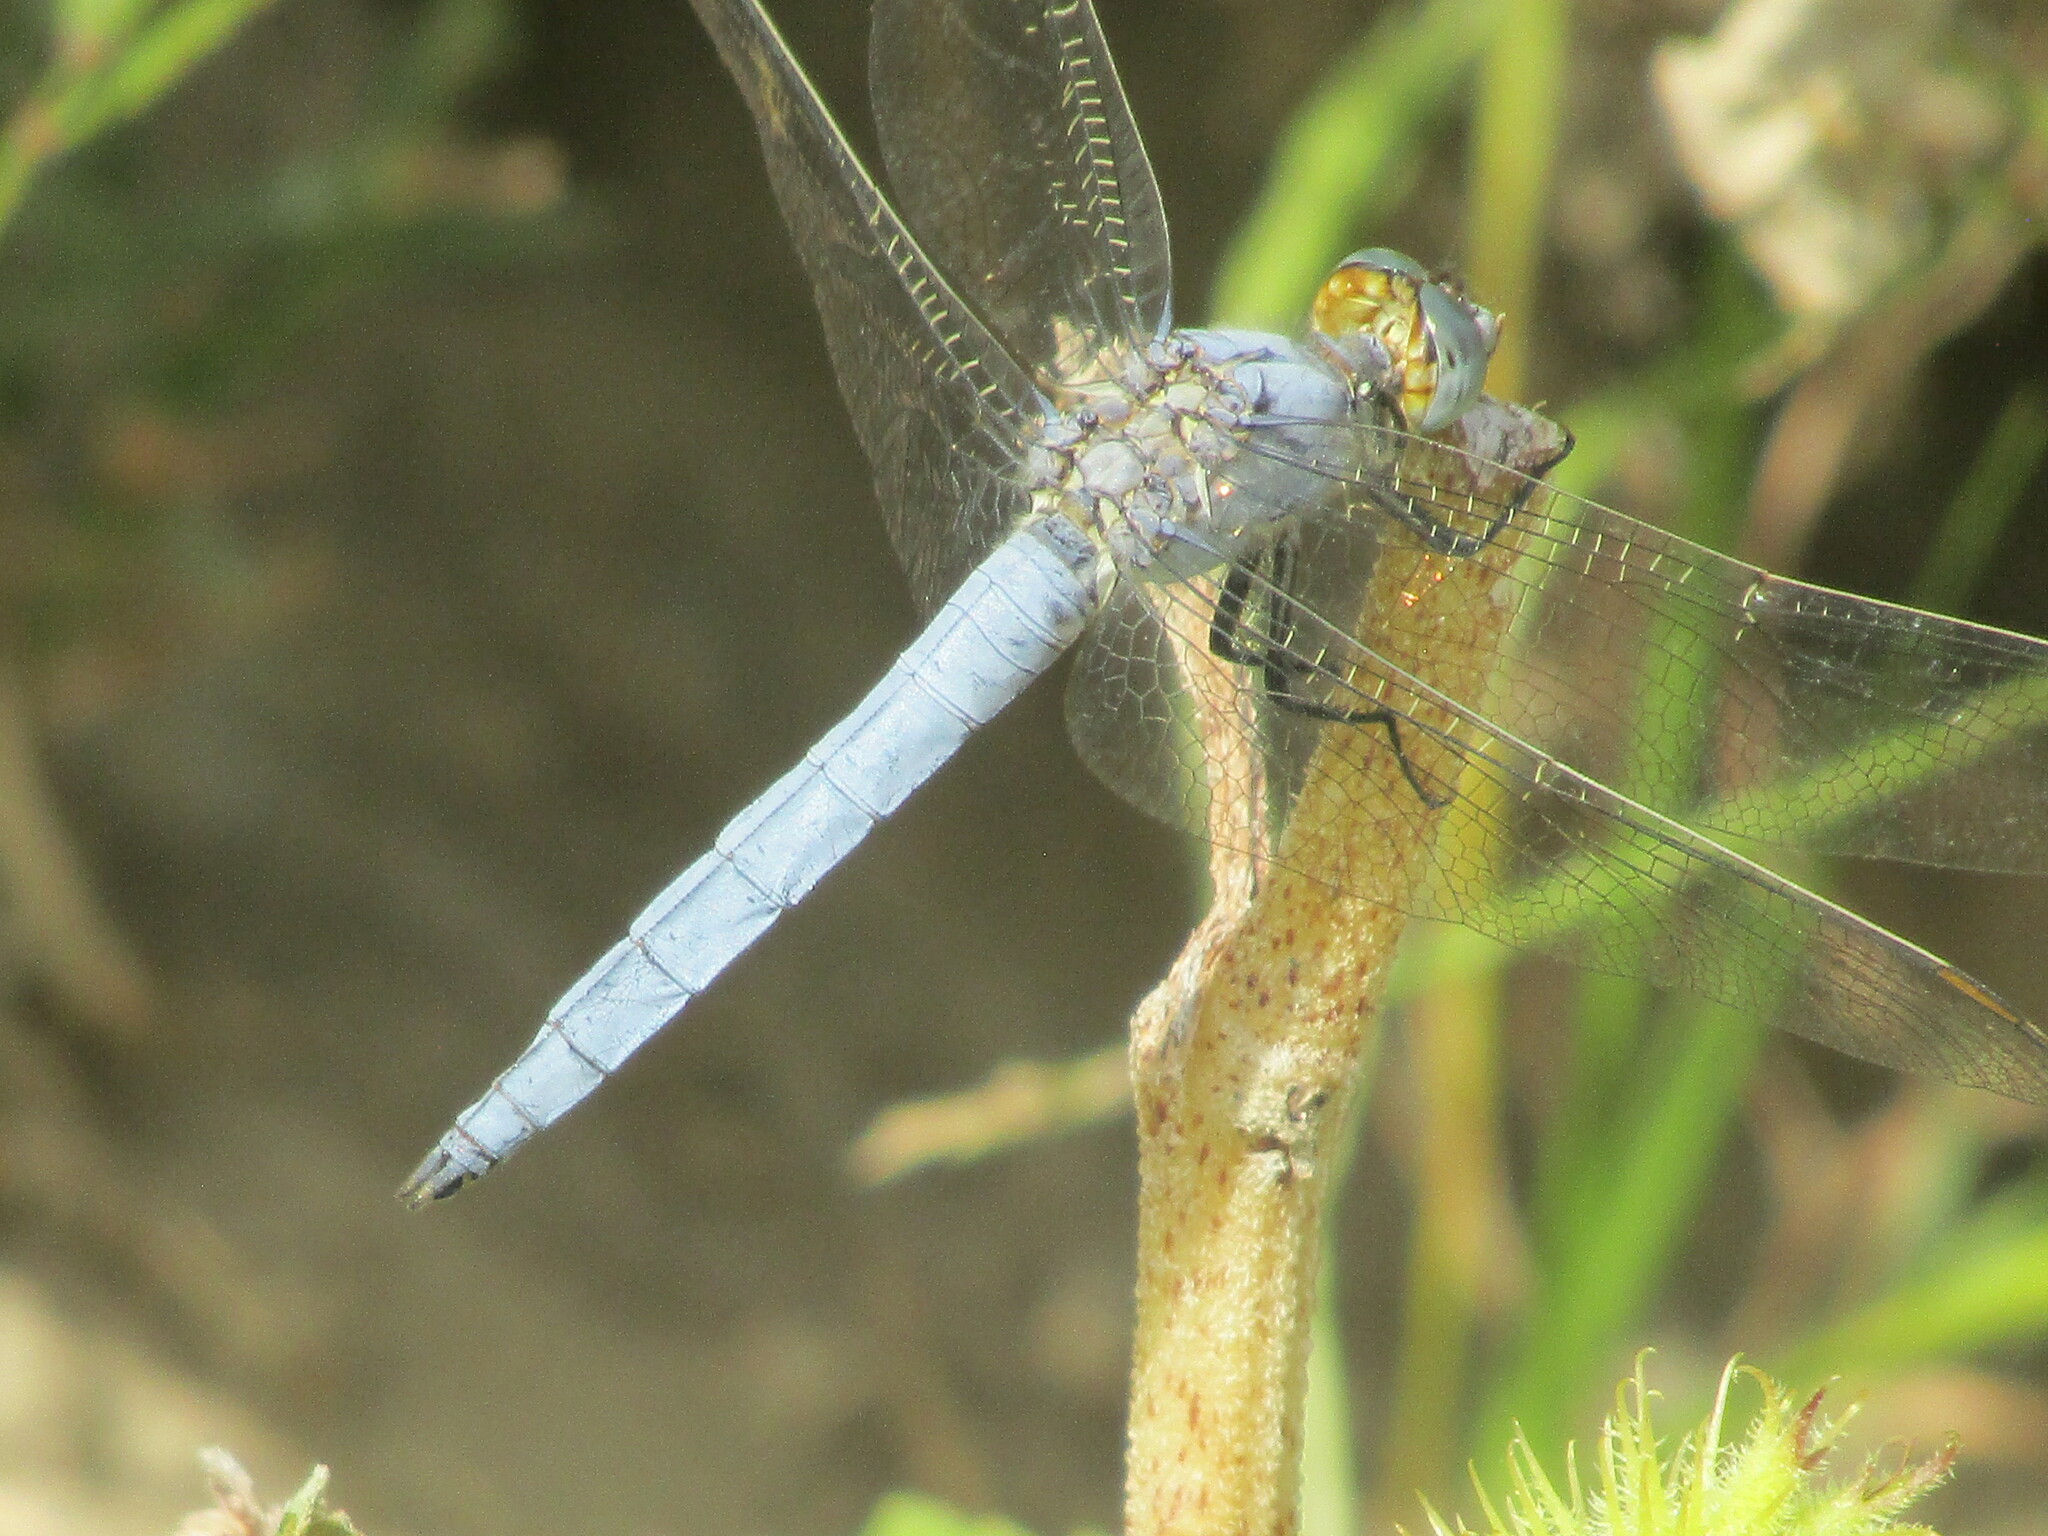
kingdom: Animalia
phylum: Arthropoda
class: Insecta
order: Odonata
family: Libellulidae
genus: Orthetrum
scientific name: Orthetrum brunneum
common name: Southern skimmer
